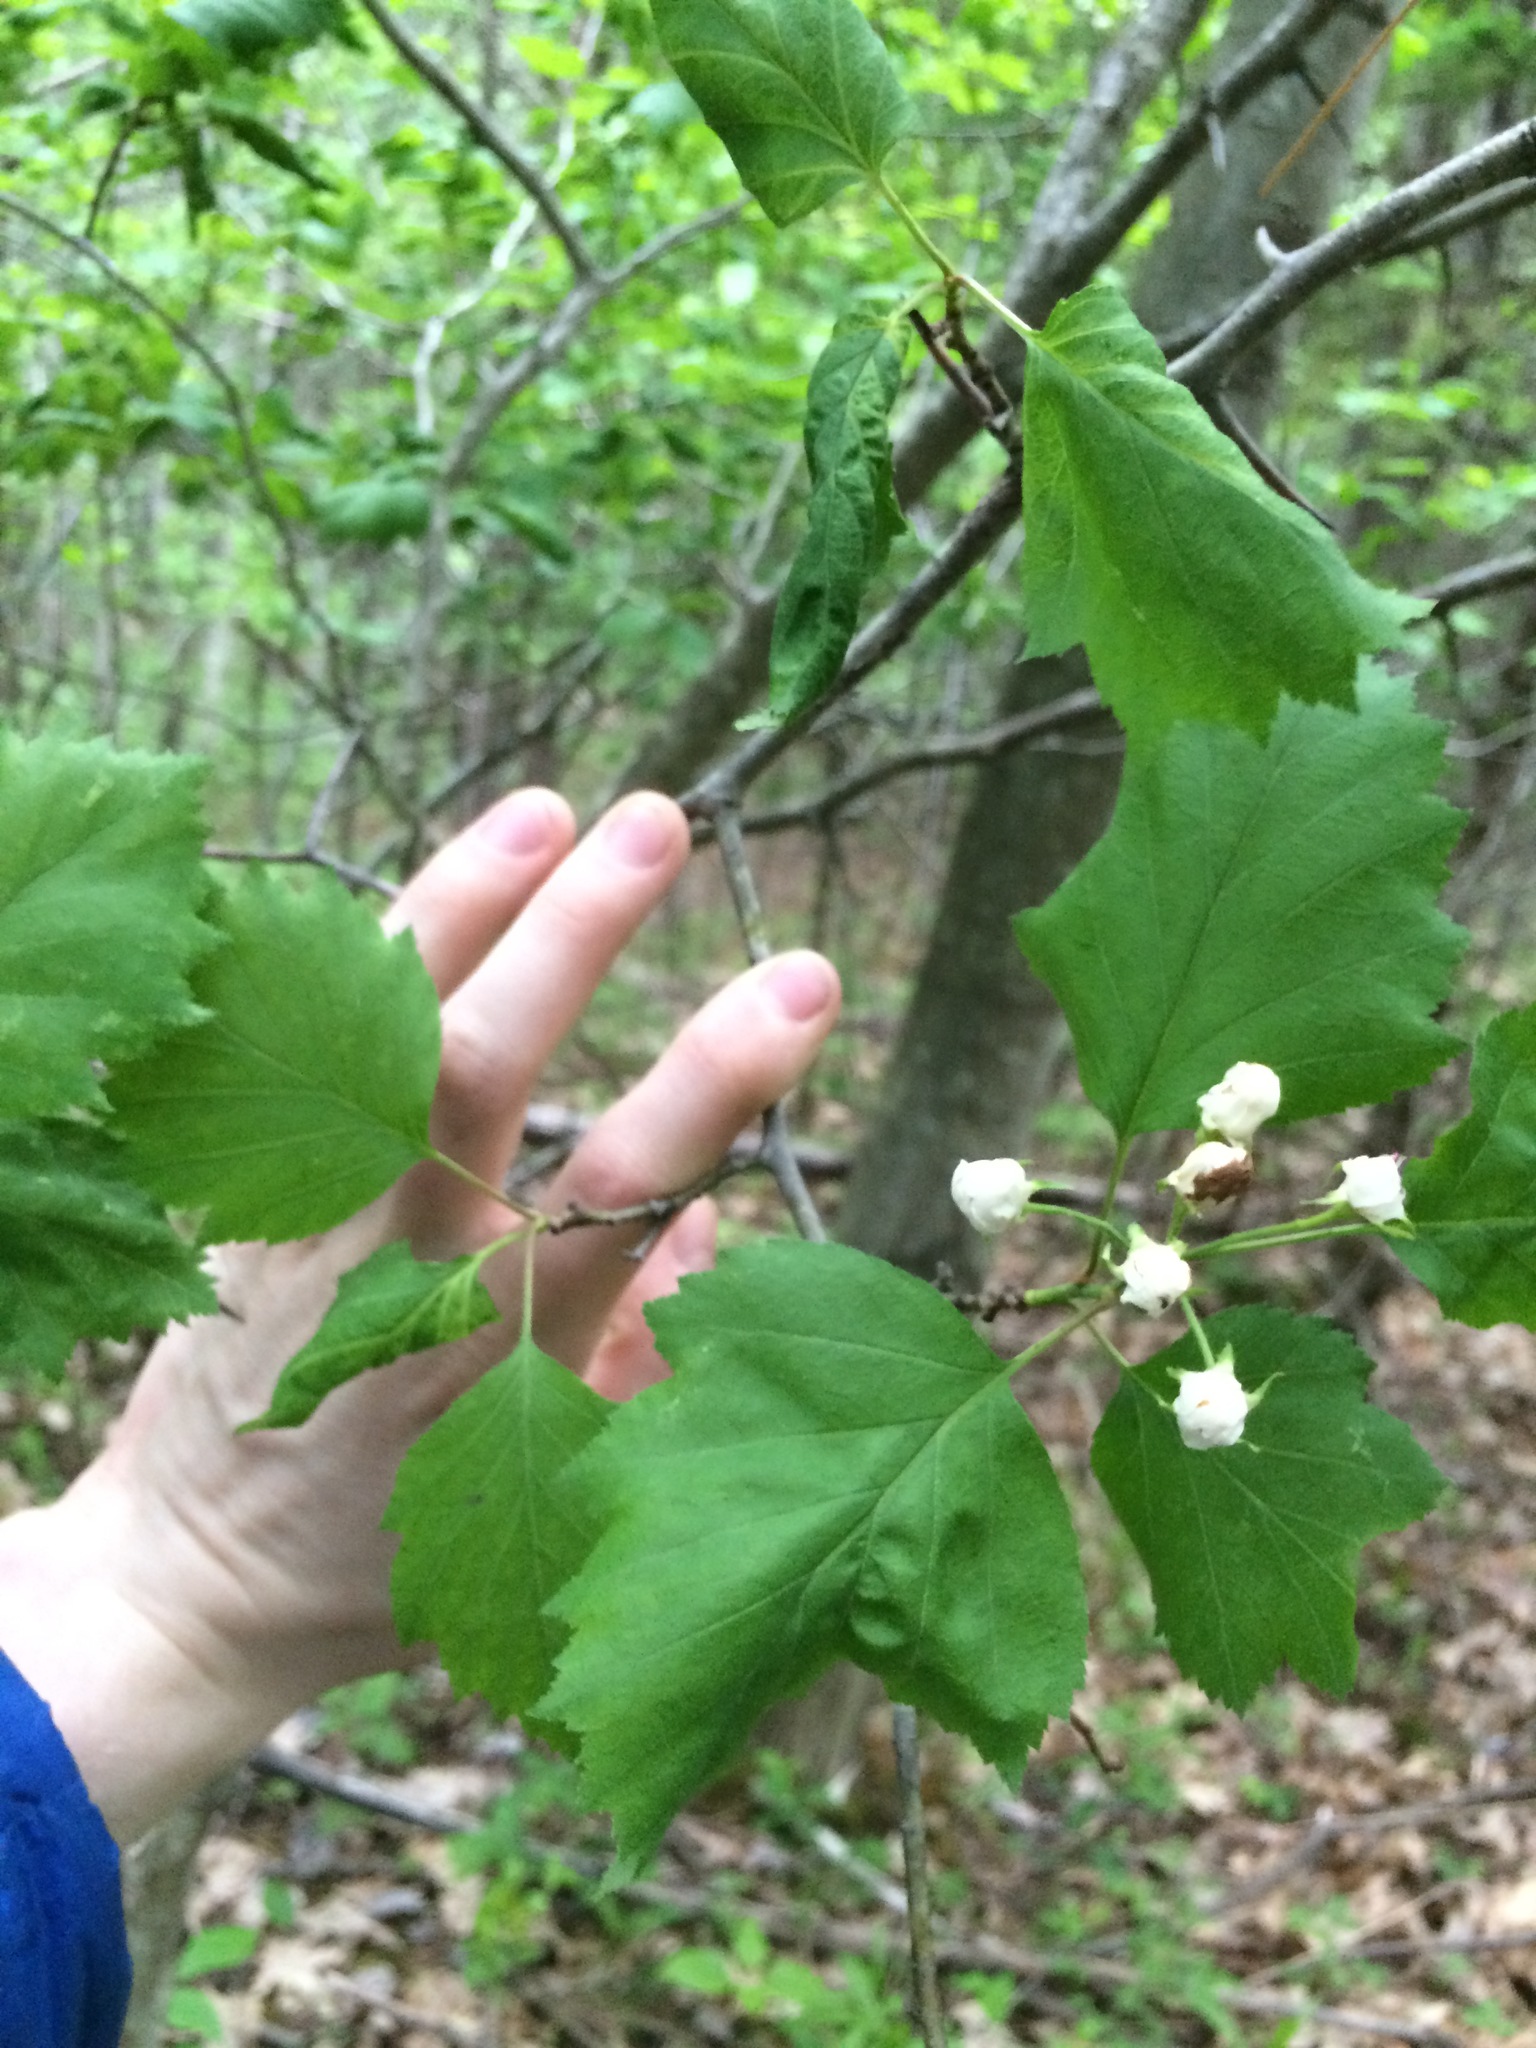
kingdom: Plantae
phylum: Tracheophyta
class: Magnoliopsida
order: Rosales
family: Rosaceae
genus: Crataegus
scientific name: Crataegus schuettei
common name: Schuette's hawthorn
